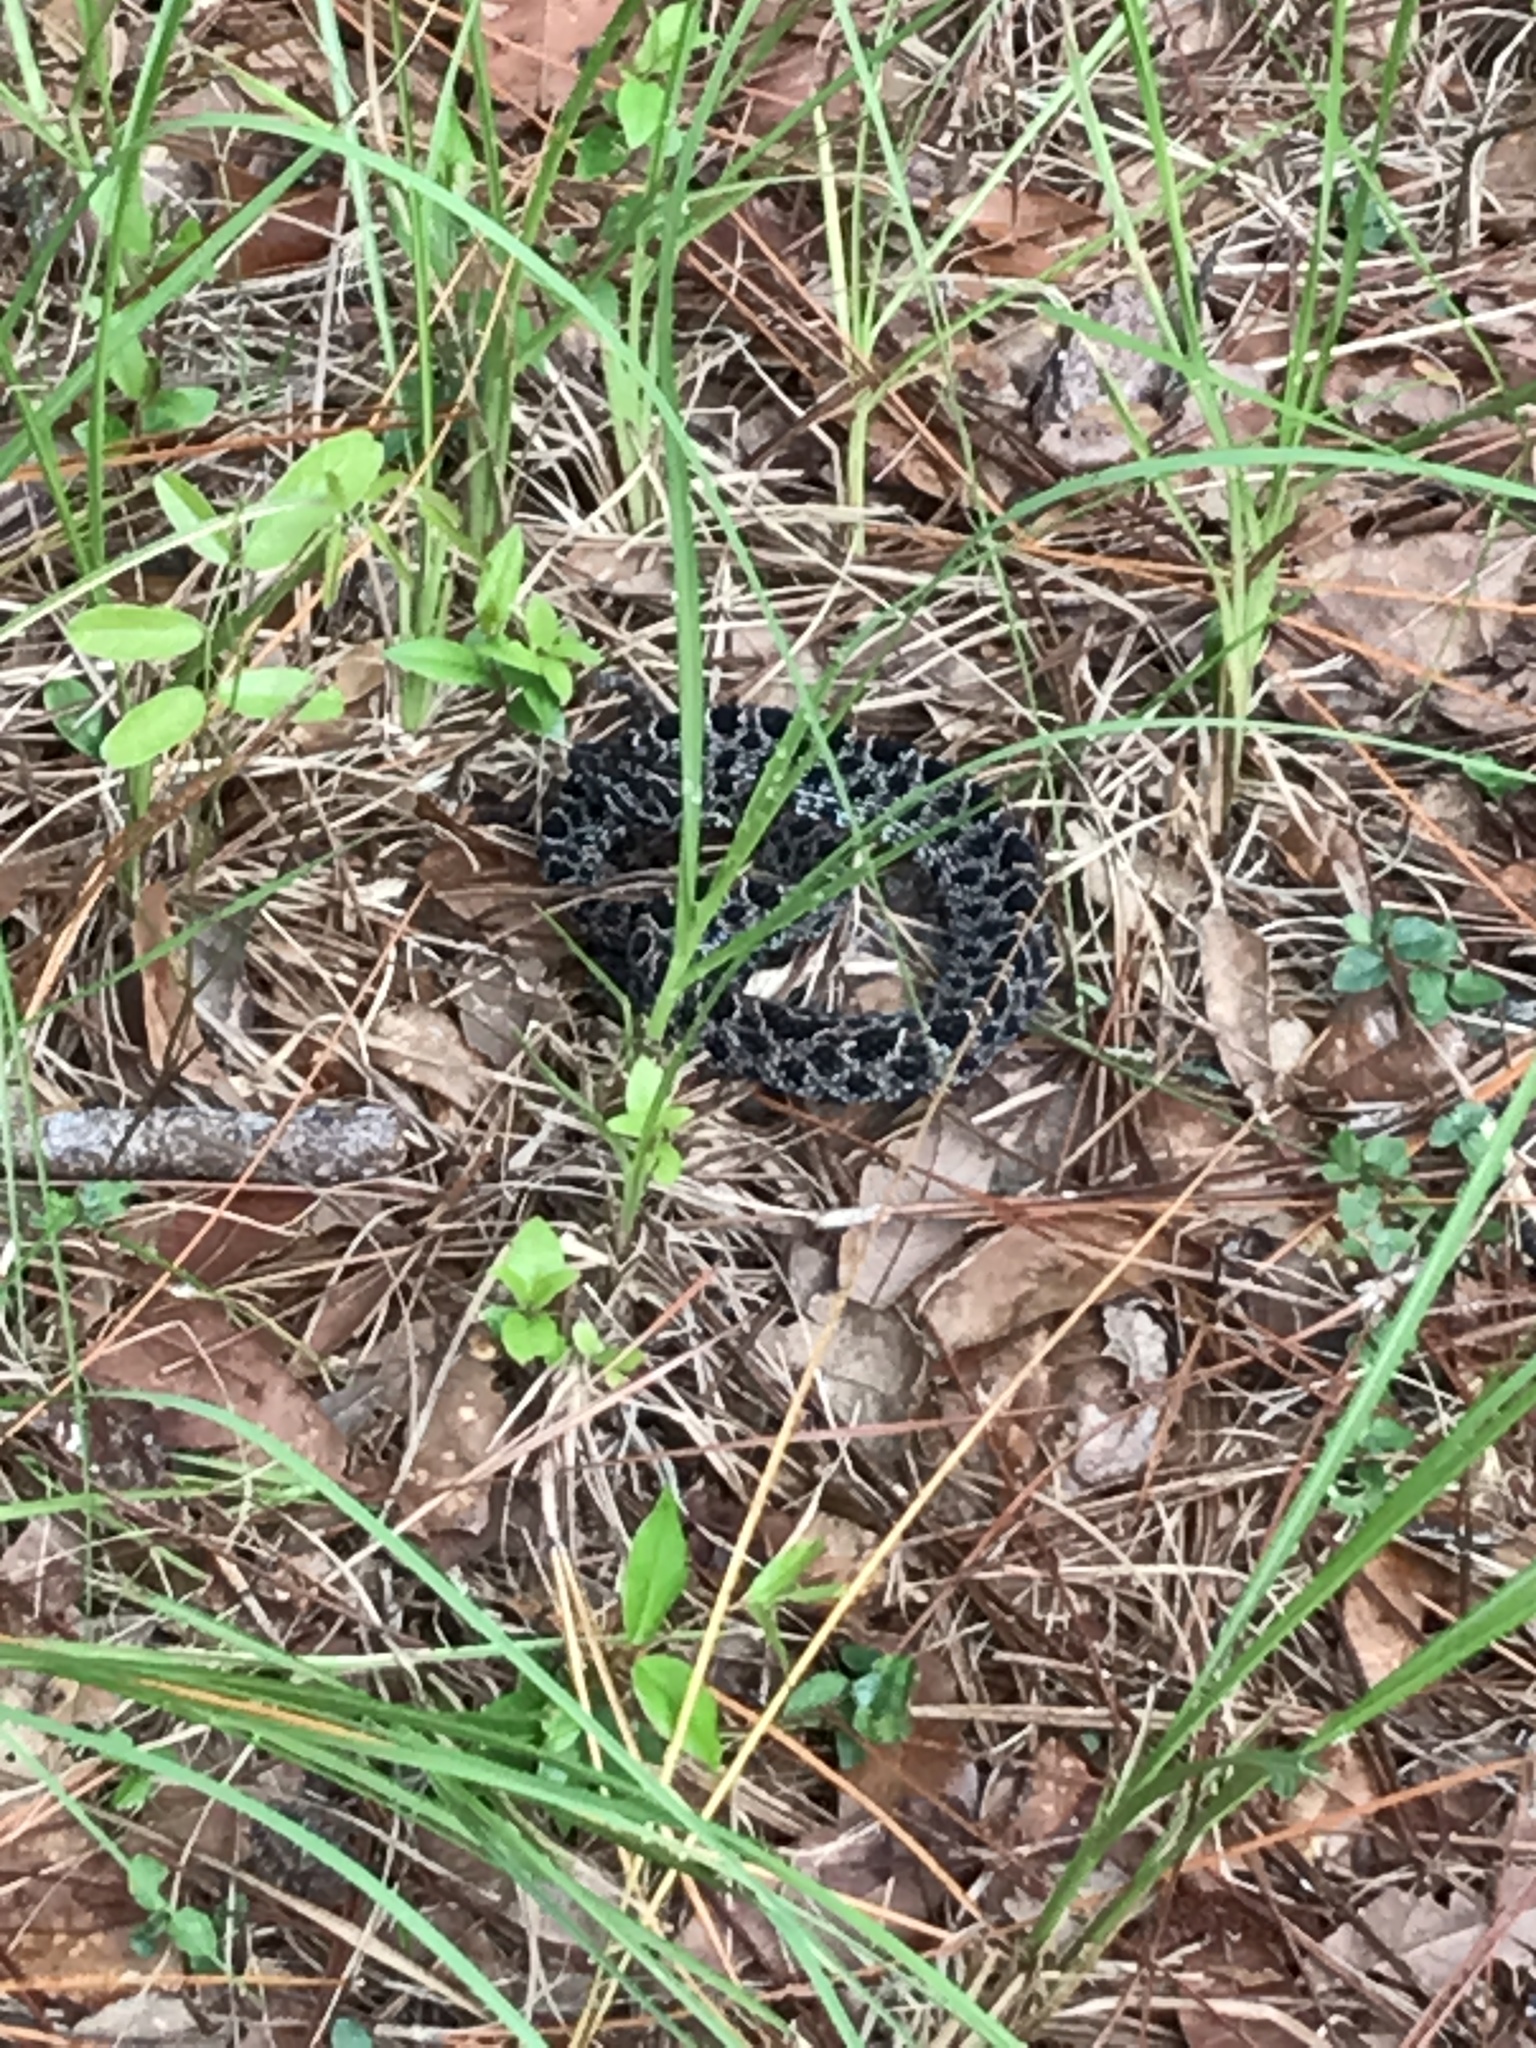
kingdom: Animalia
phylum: Chordata
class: Squamata
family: Viperidae
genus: Sistrurus
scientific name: Sistrurus miliarius
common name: Pygmy rattlesnake
